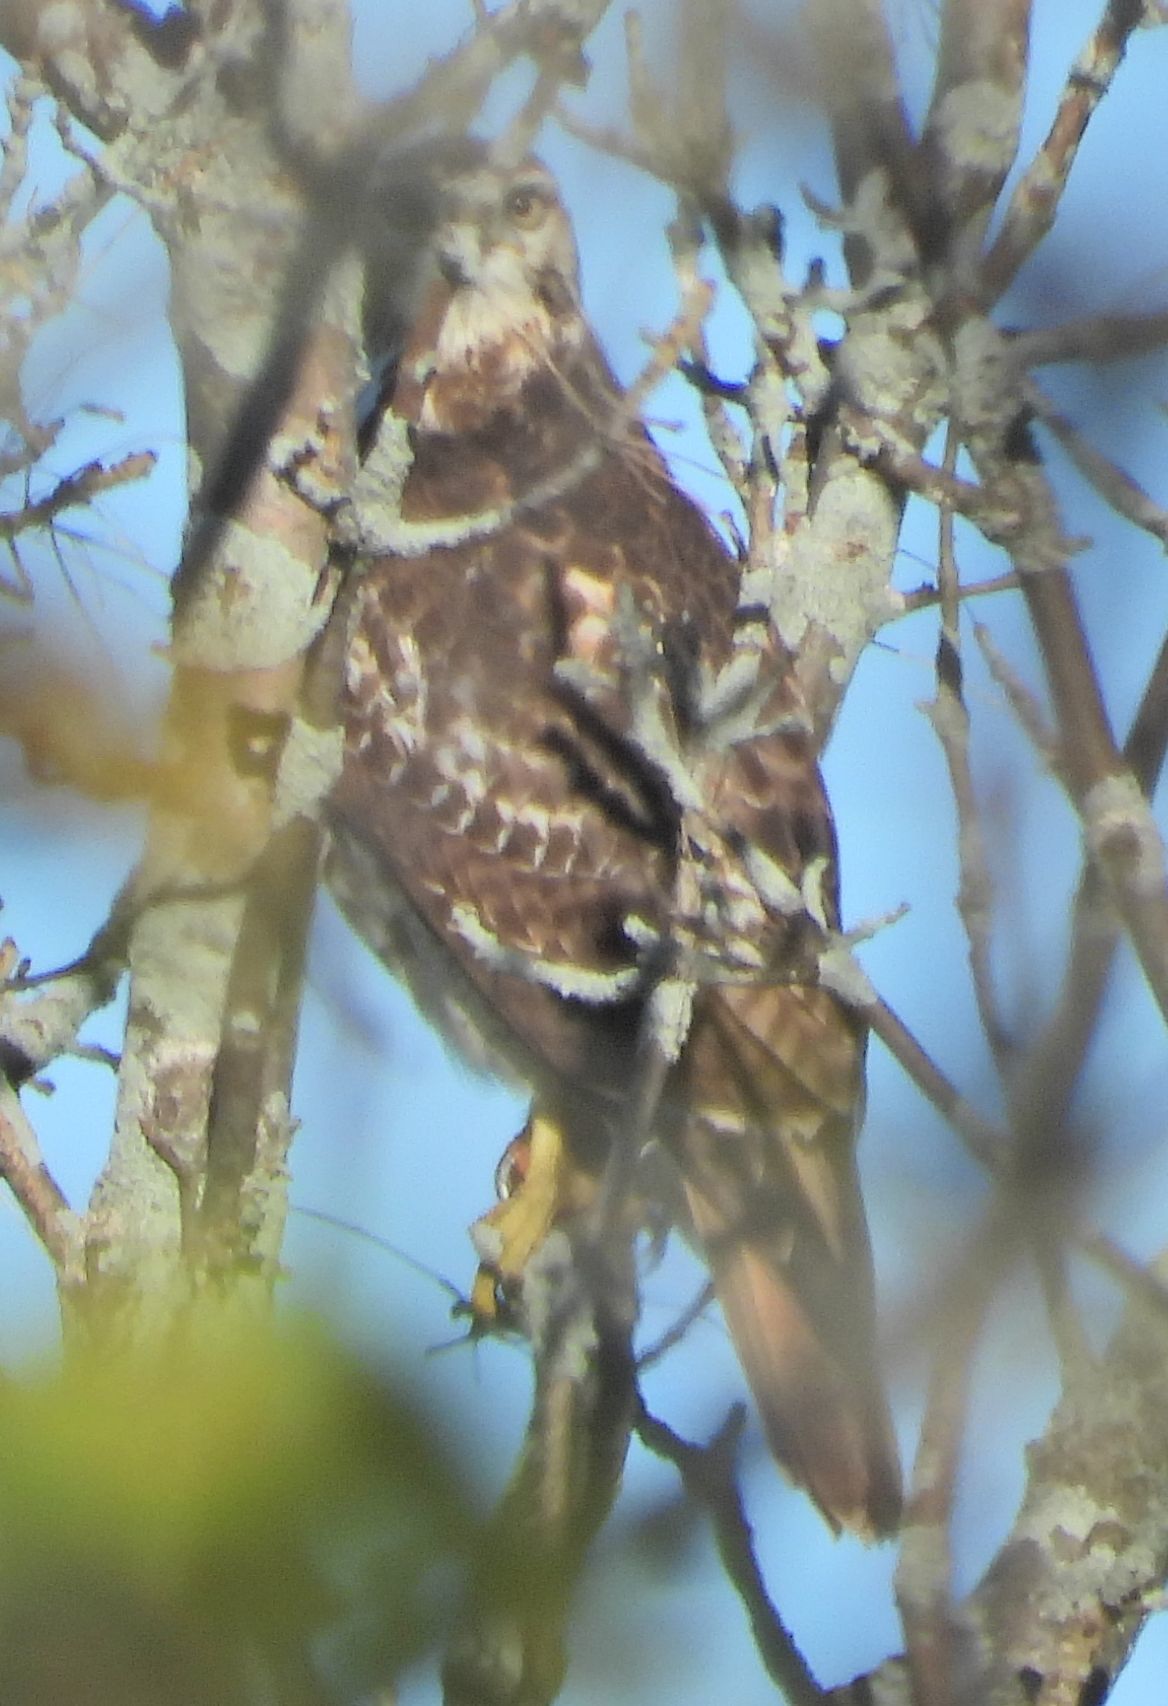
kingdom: Animalia
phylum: Chordata
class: Aves
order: Accipitriformes
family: Accipitridae
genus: Buteo
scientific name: Buteo jamaicensis
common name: Red-tailed hawk
